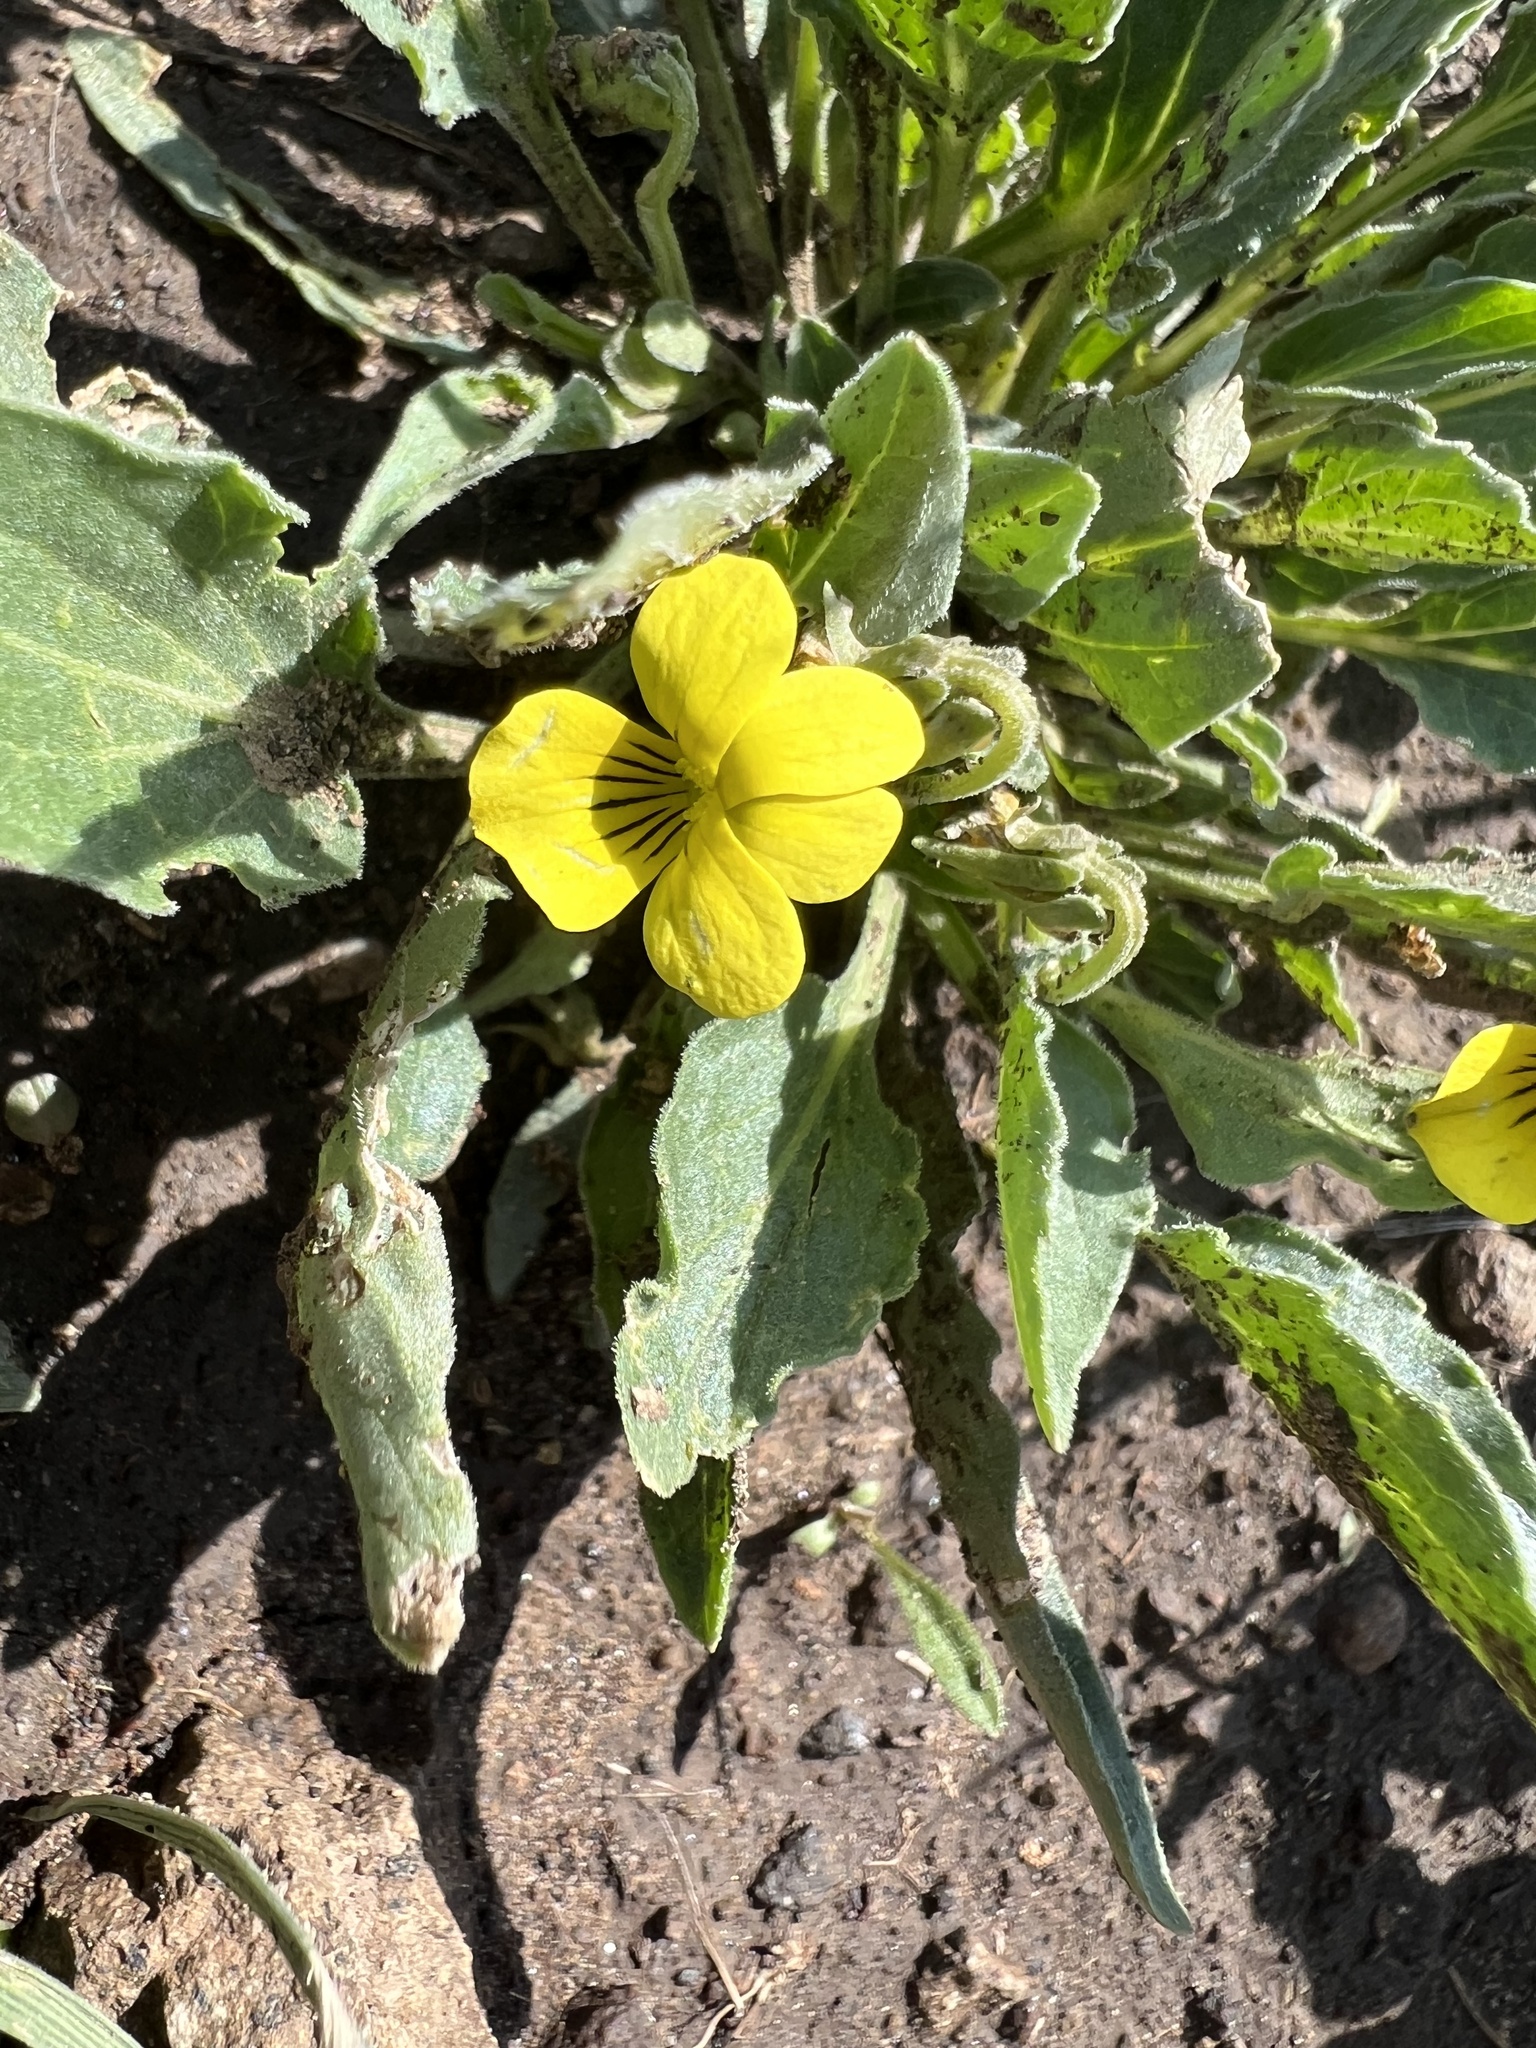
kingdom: Plantae
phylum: Tracheophyta
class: Magnoliopsida
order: Malpighiales
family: Violaceae
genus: Viola
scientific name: Viola nuttallii
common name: Yellow prairie violet
